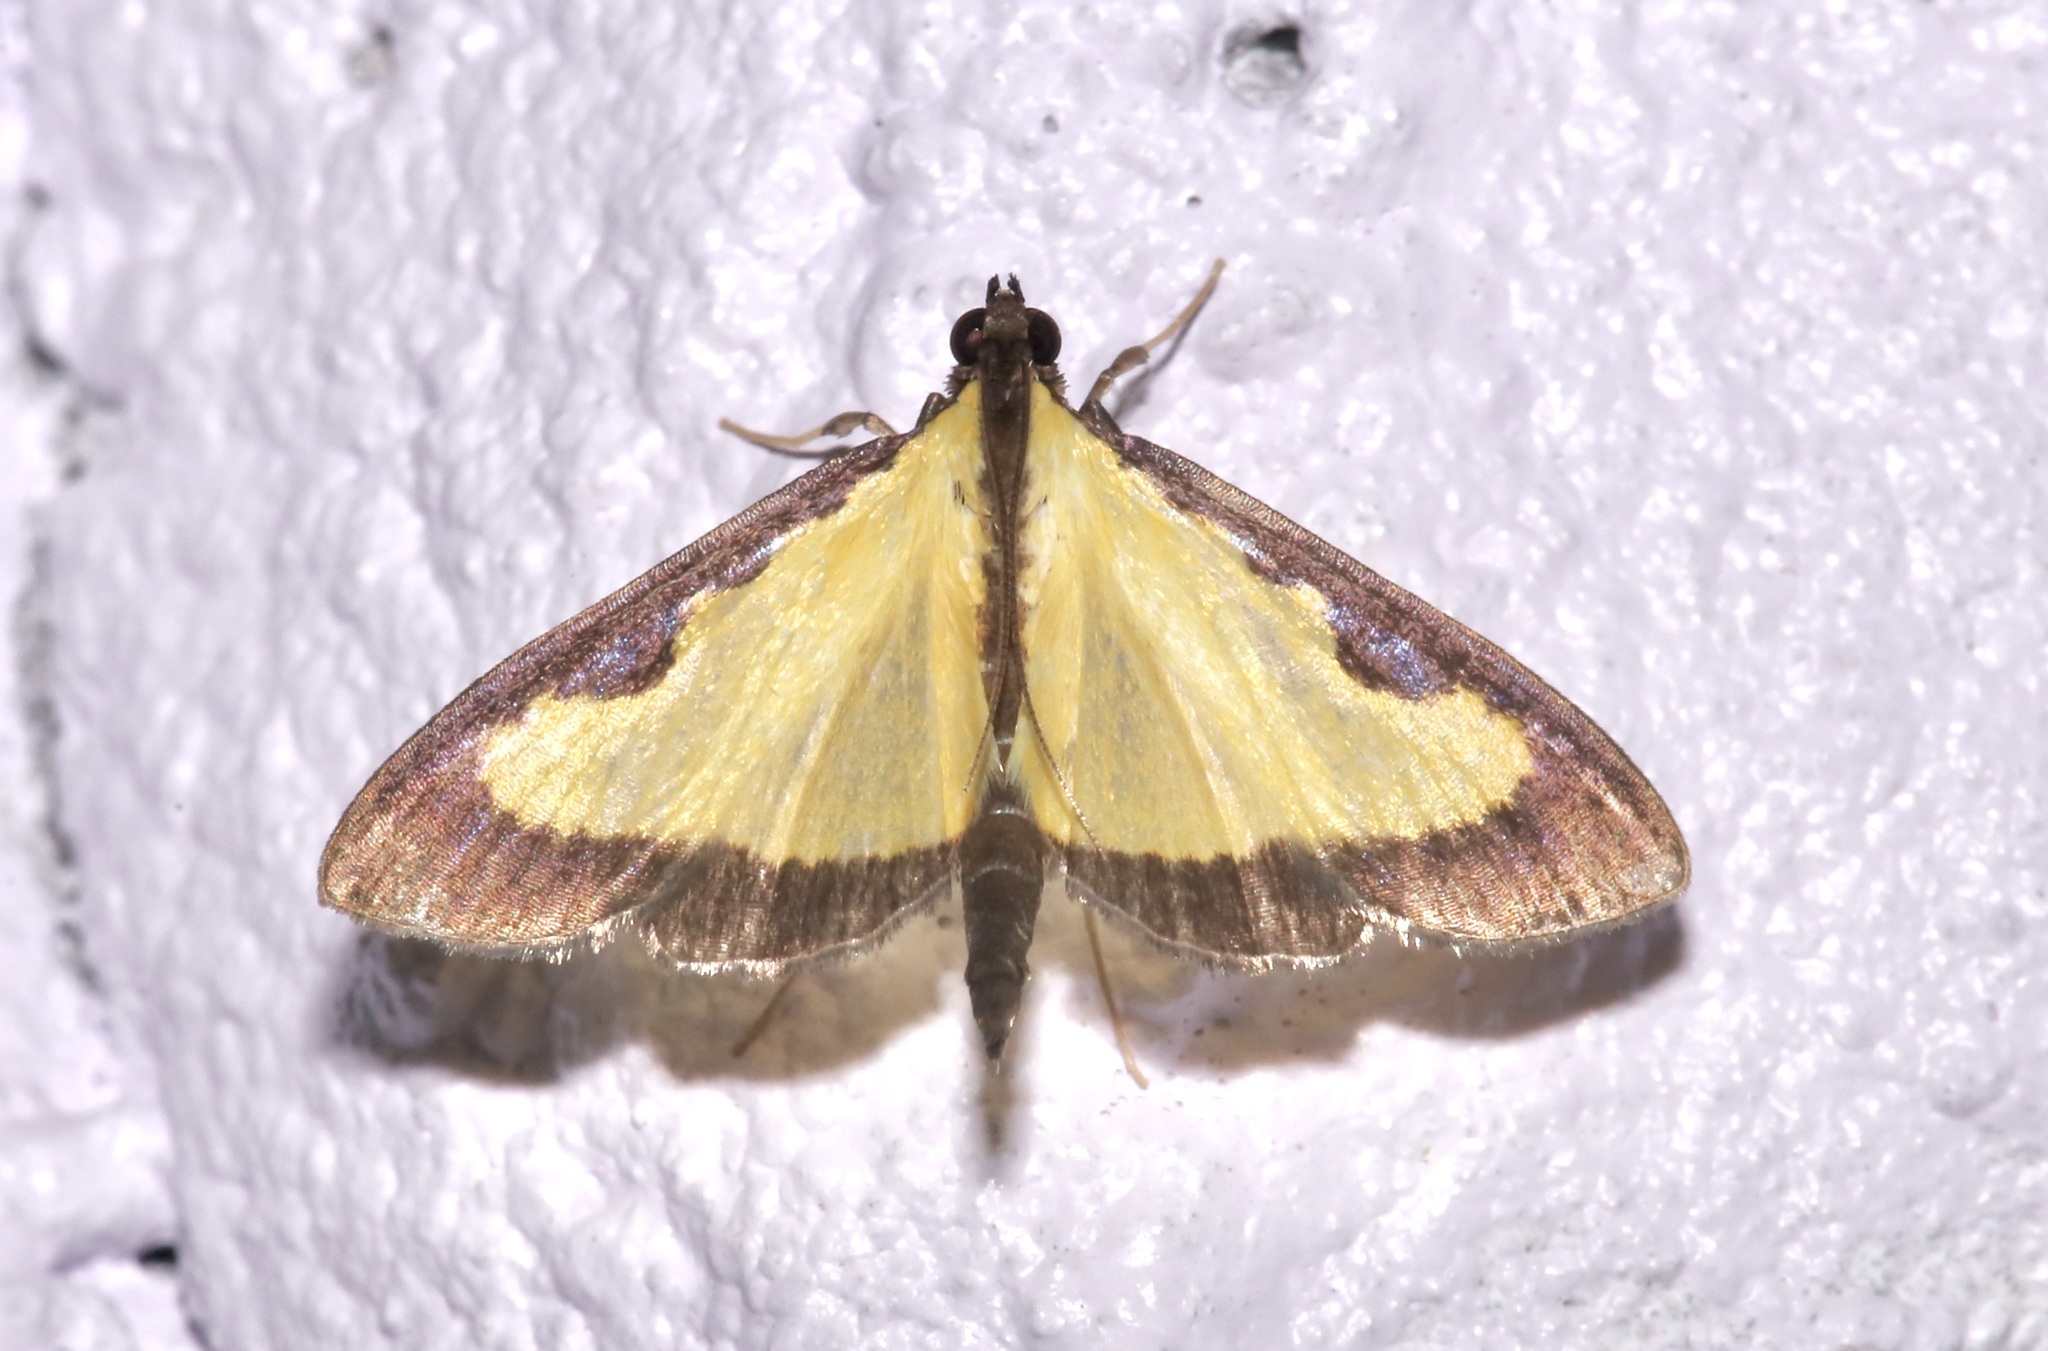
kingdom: Animalia
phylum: Arthropoda
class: Insecta
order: Lepidoptera
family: Crambidae
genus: Goniorhynchus
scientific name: Goniorhynchus
